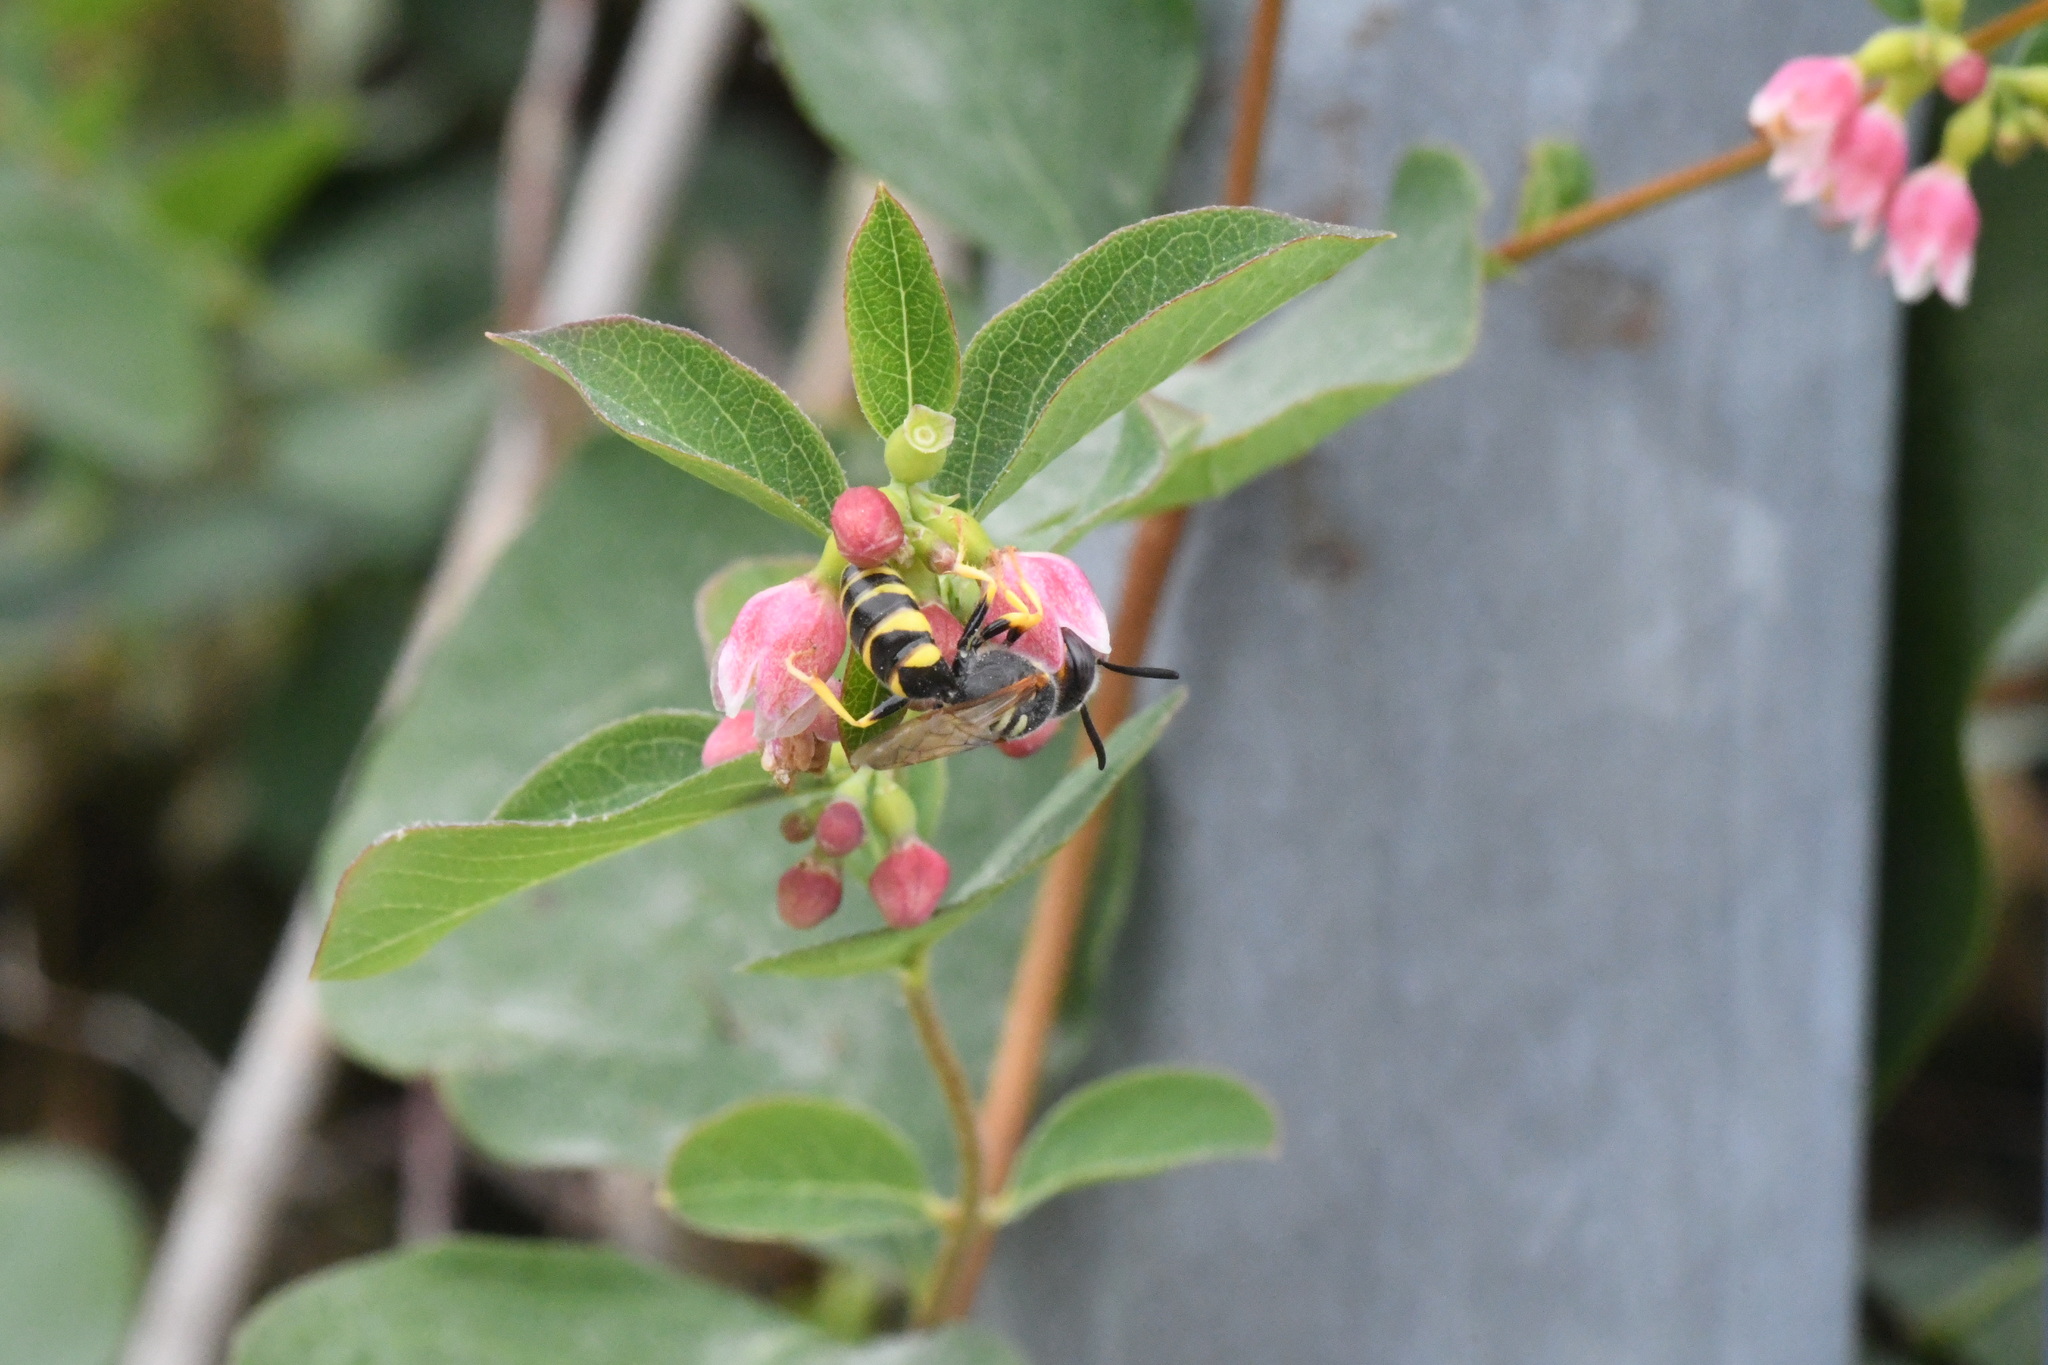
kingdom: Animalia
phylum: Arthropoda
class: Insecta
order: Hymenoptera
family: Crabronidae
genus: Philanthus
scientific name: Philanthus triangulum
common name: Bee wolf
